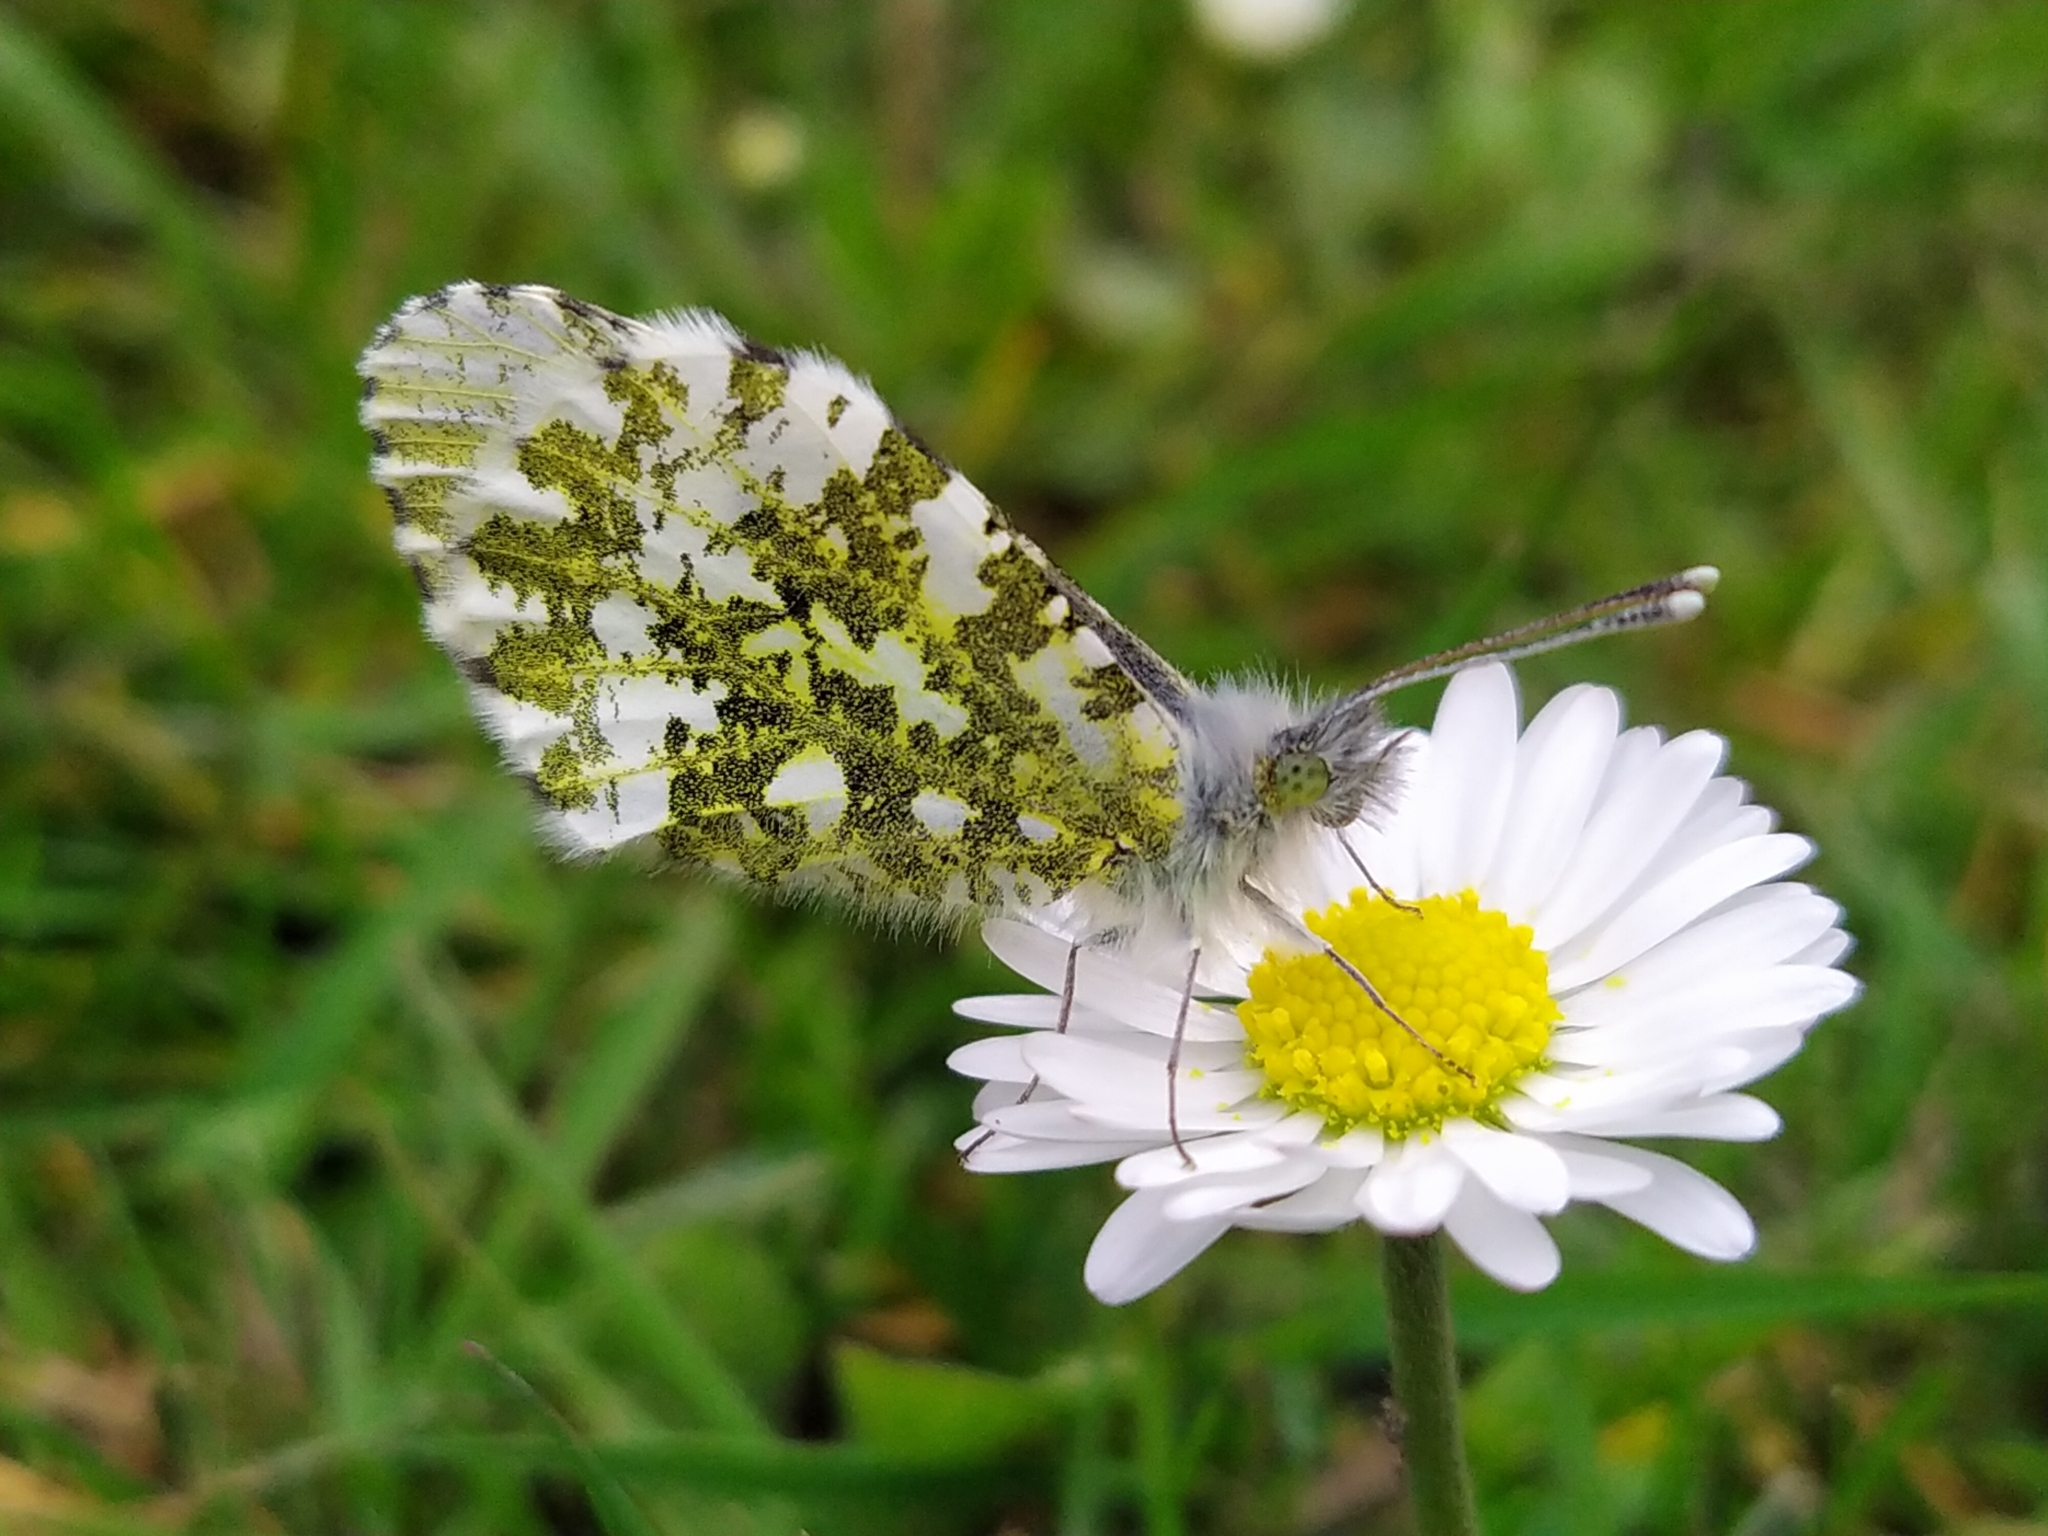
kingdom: Animalia
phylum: Arthropoda
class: Insecta
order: Lepidoptera
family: Pieridae
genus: Anthocharis
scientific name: Anthocharis cardamines
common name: Orange-tip
